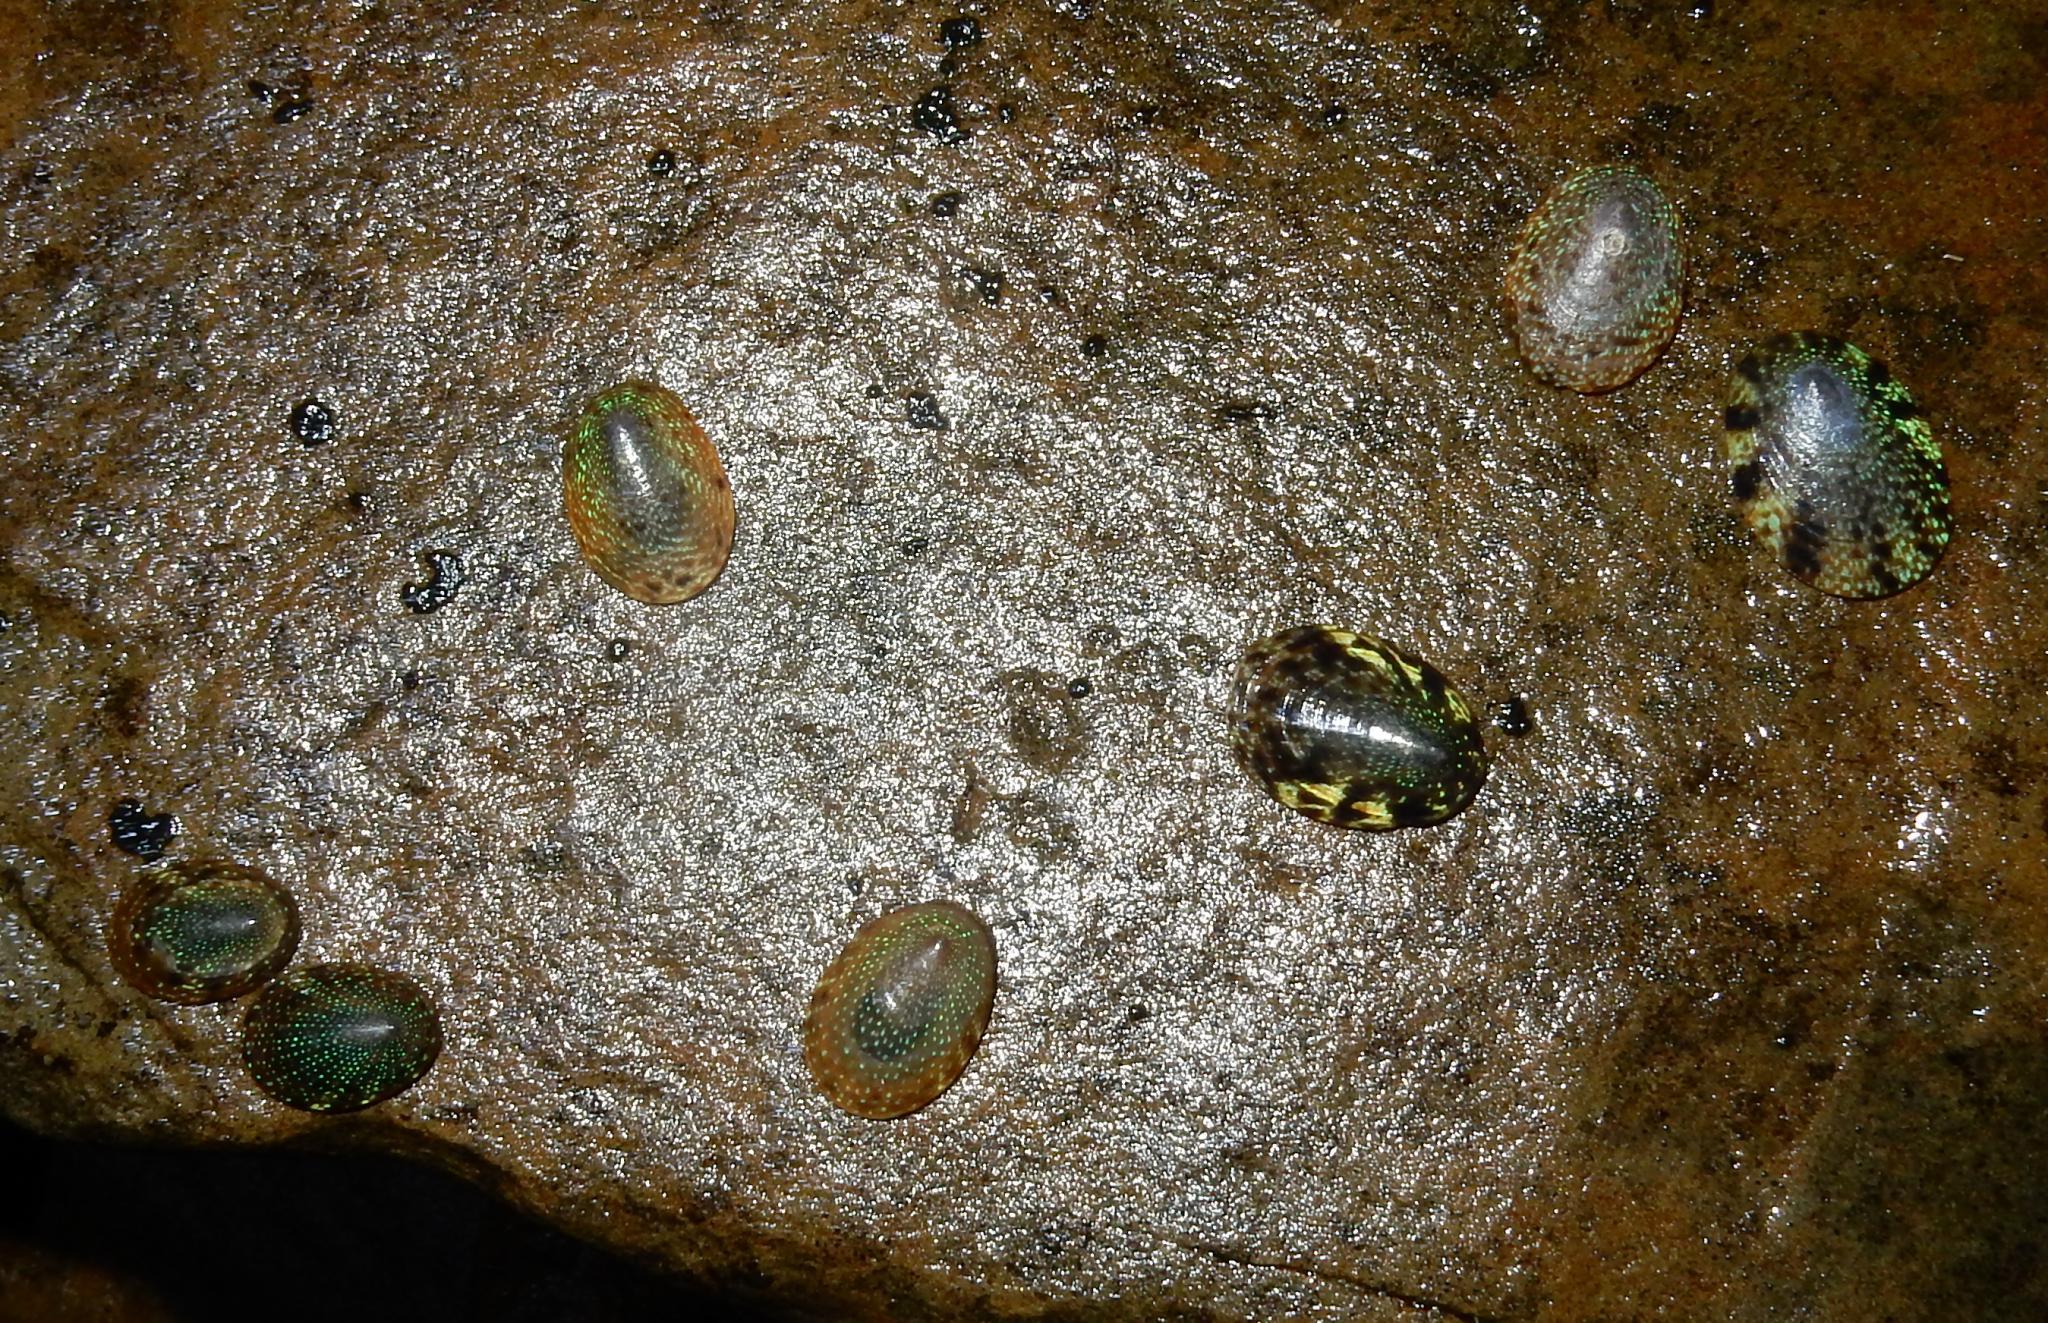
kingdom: Animalia
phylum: Mollusca
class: Gastropoda
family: Patellidae
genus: Helcion
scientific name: Helcion pruinosus
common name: Rayed limpet
